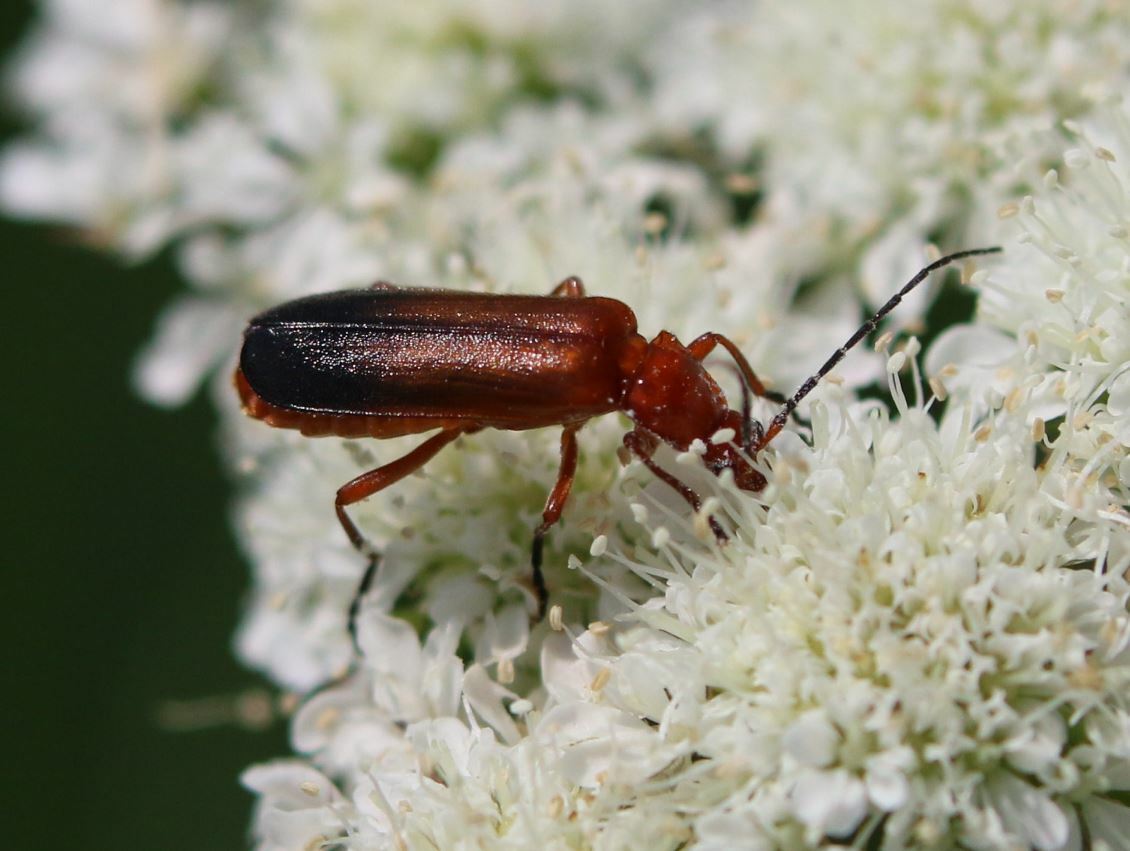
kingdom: Animalia
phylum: Arthropoda
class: Insecta
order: Coleoptera
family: Cantharidae
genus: Rhagonycha
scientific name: Rhagonycha fulva
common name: Common red soldier beetle
